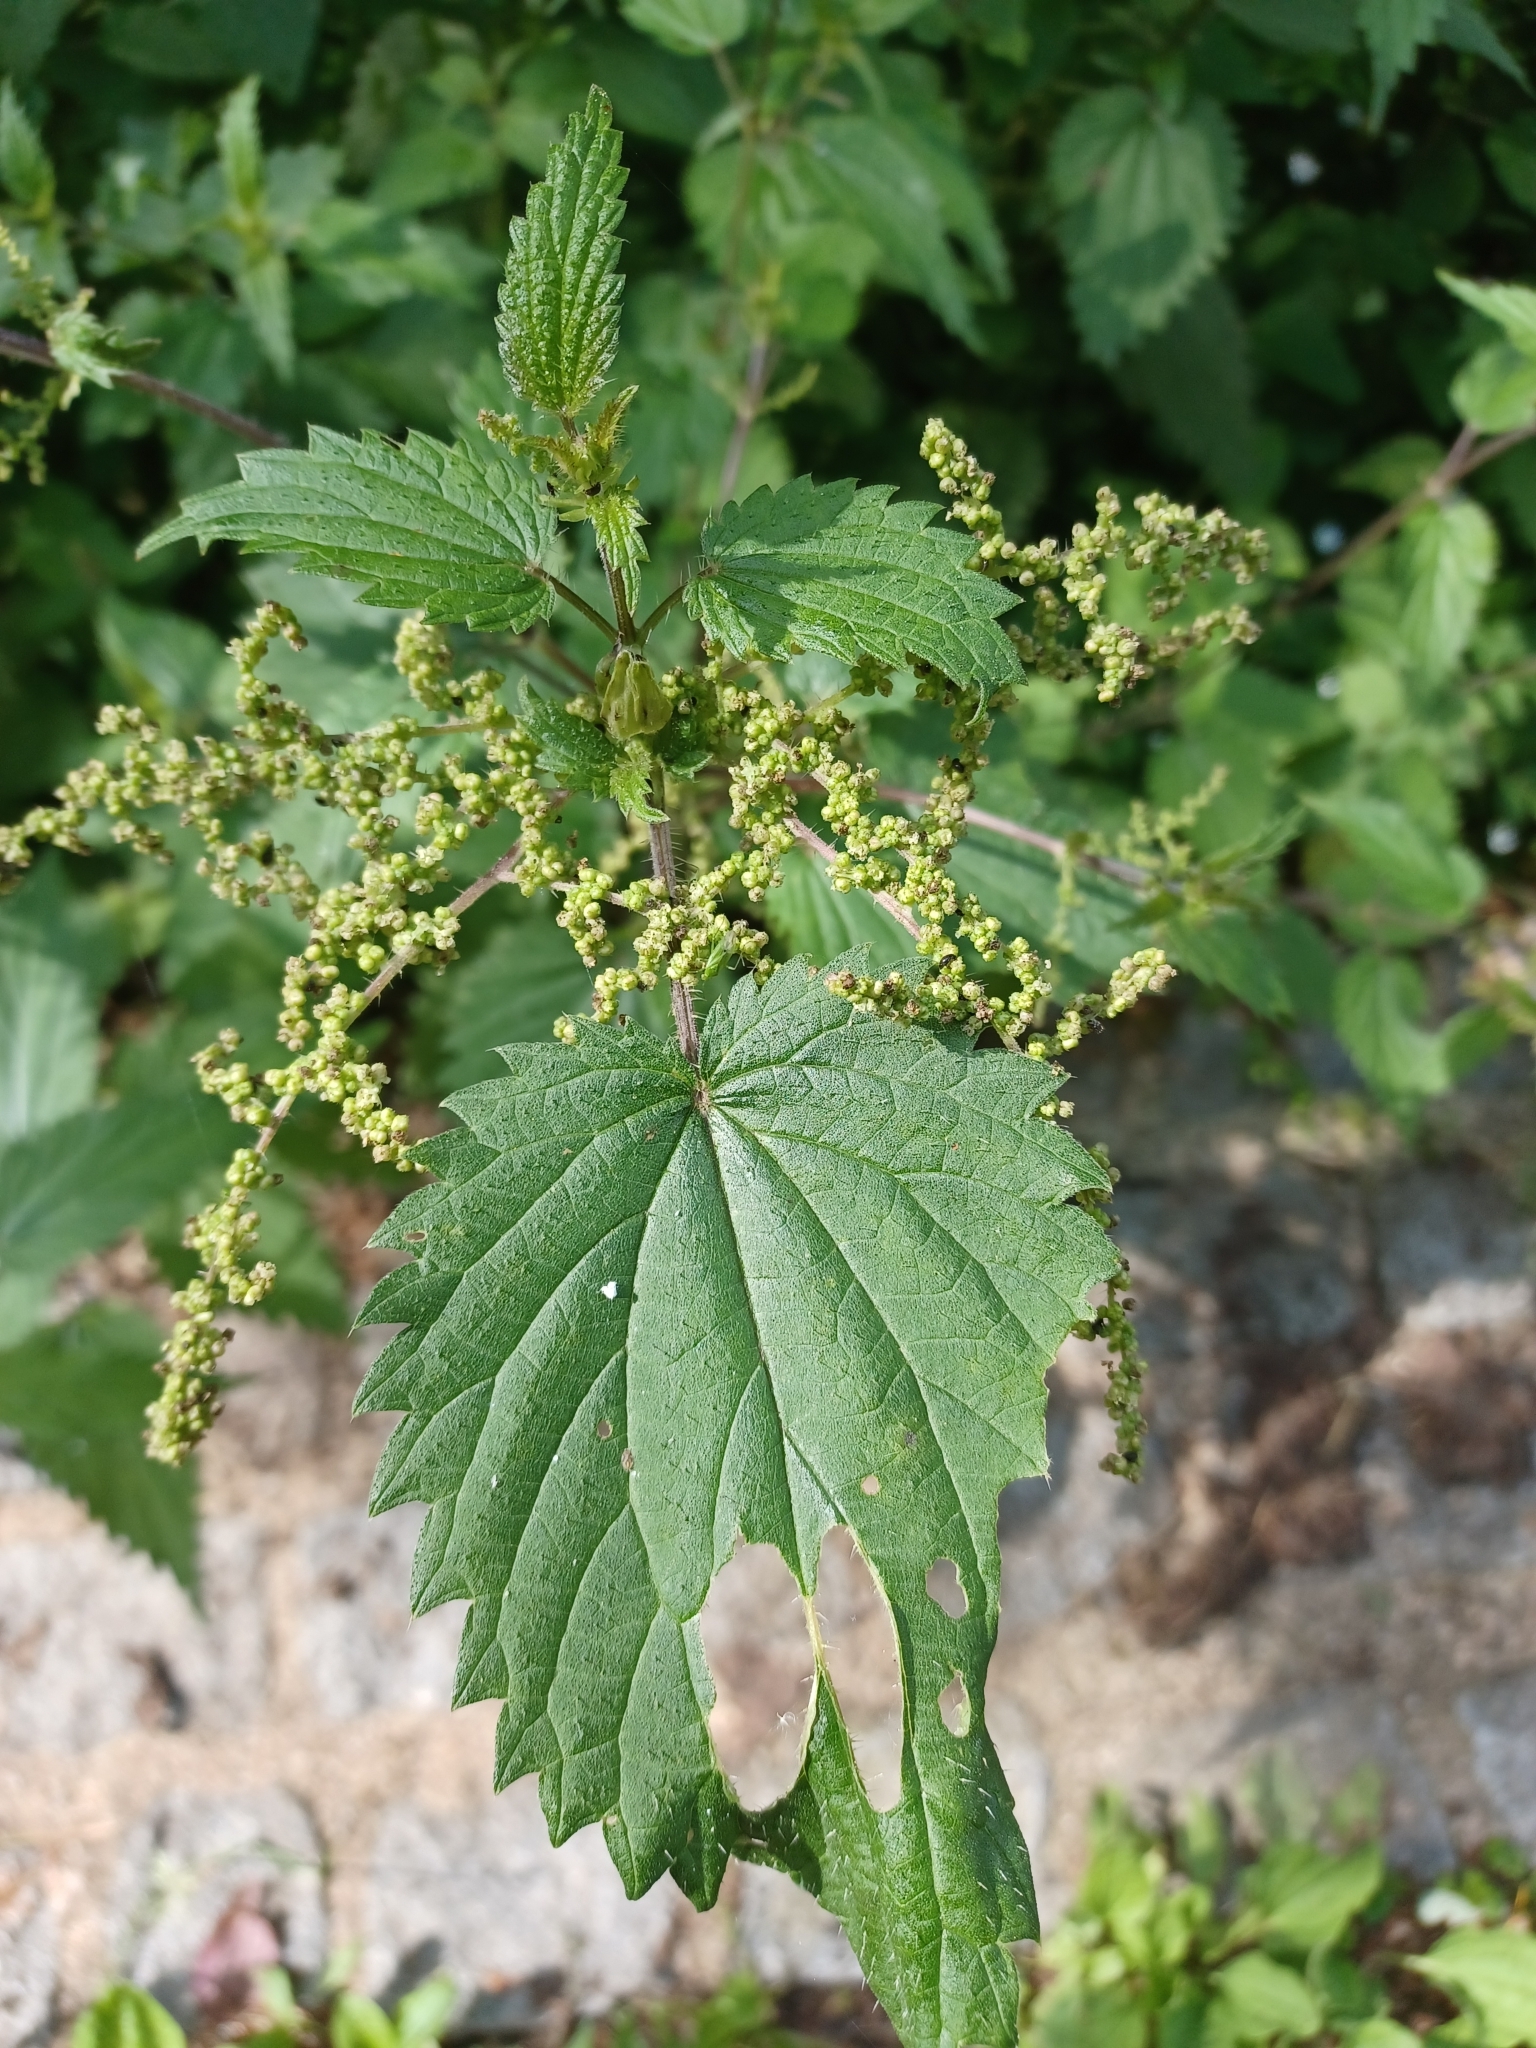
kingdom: Plantae
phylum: Tracheophyta
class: Magnoliopsida
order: Rosales
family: Urticaceae
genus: Urtica
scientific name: Urtica dioica
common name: Common nettle
